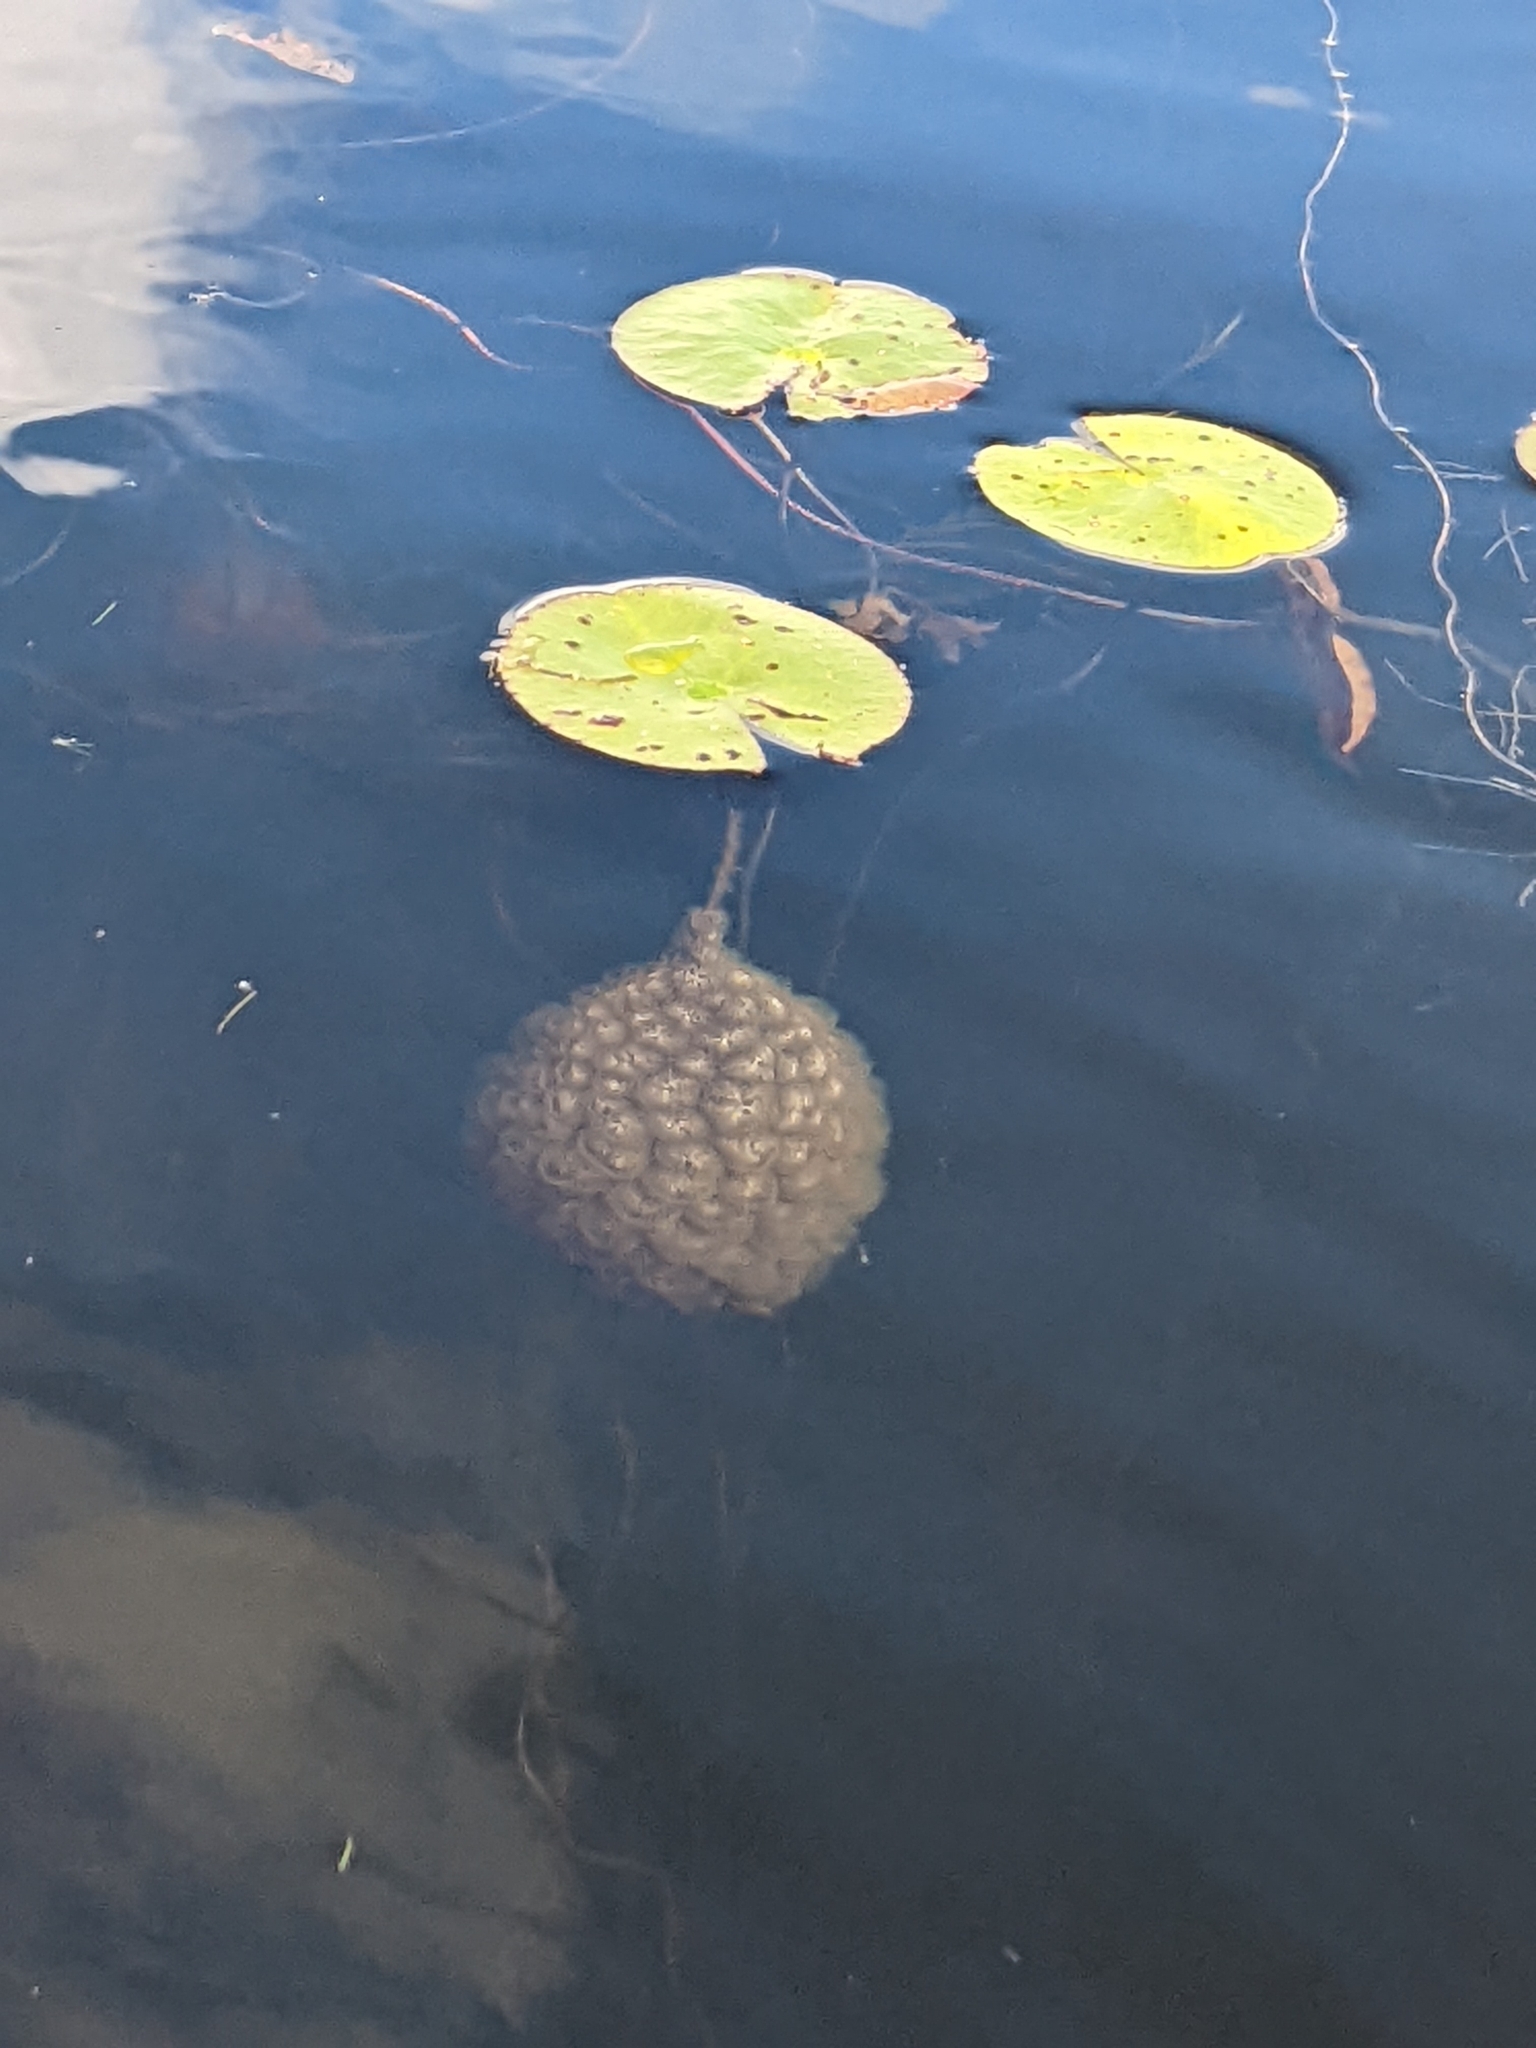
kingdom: Animalia
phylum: Bryozoa
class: Phylactolaemata
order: Plumatellida
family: Pectinatellidae
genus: Pectinatella
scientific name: Pectinatella magnifica
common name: Magnificent bryozoan
